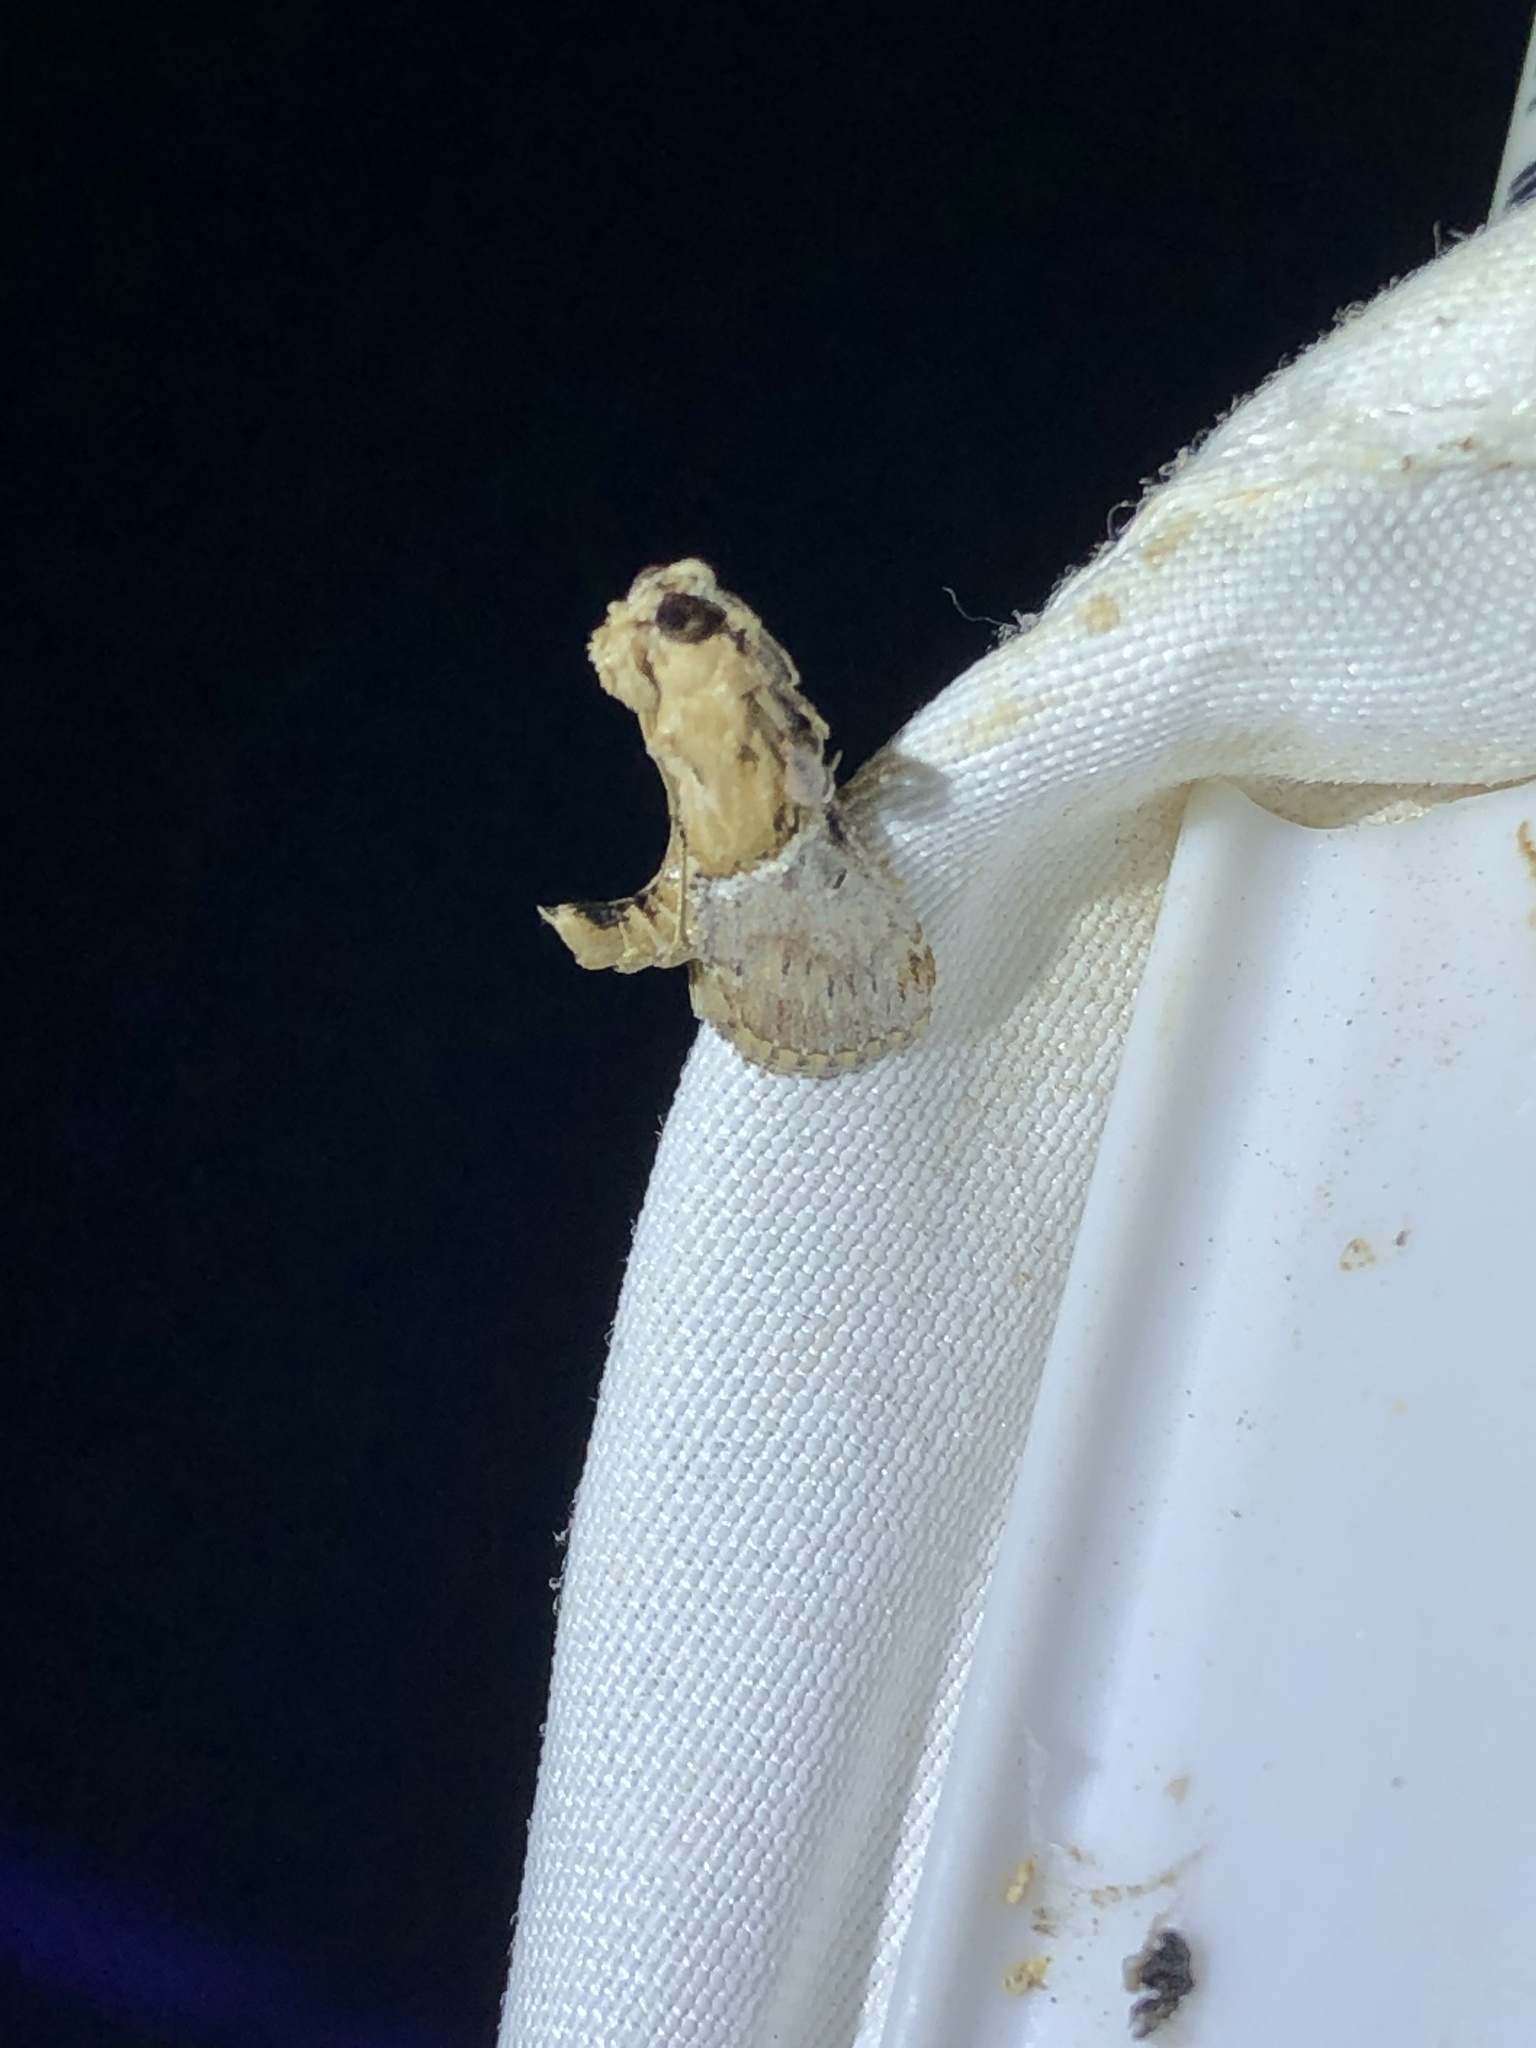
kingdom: Animalia
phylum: Arthropoda
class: Insecta
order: Lepidoptera
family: Pyralidae
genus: Cacozelia
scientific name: Cacozelia elegans
